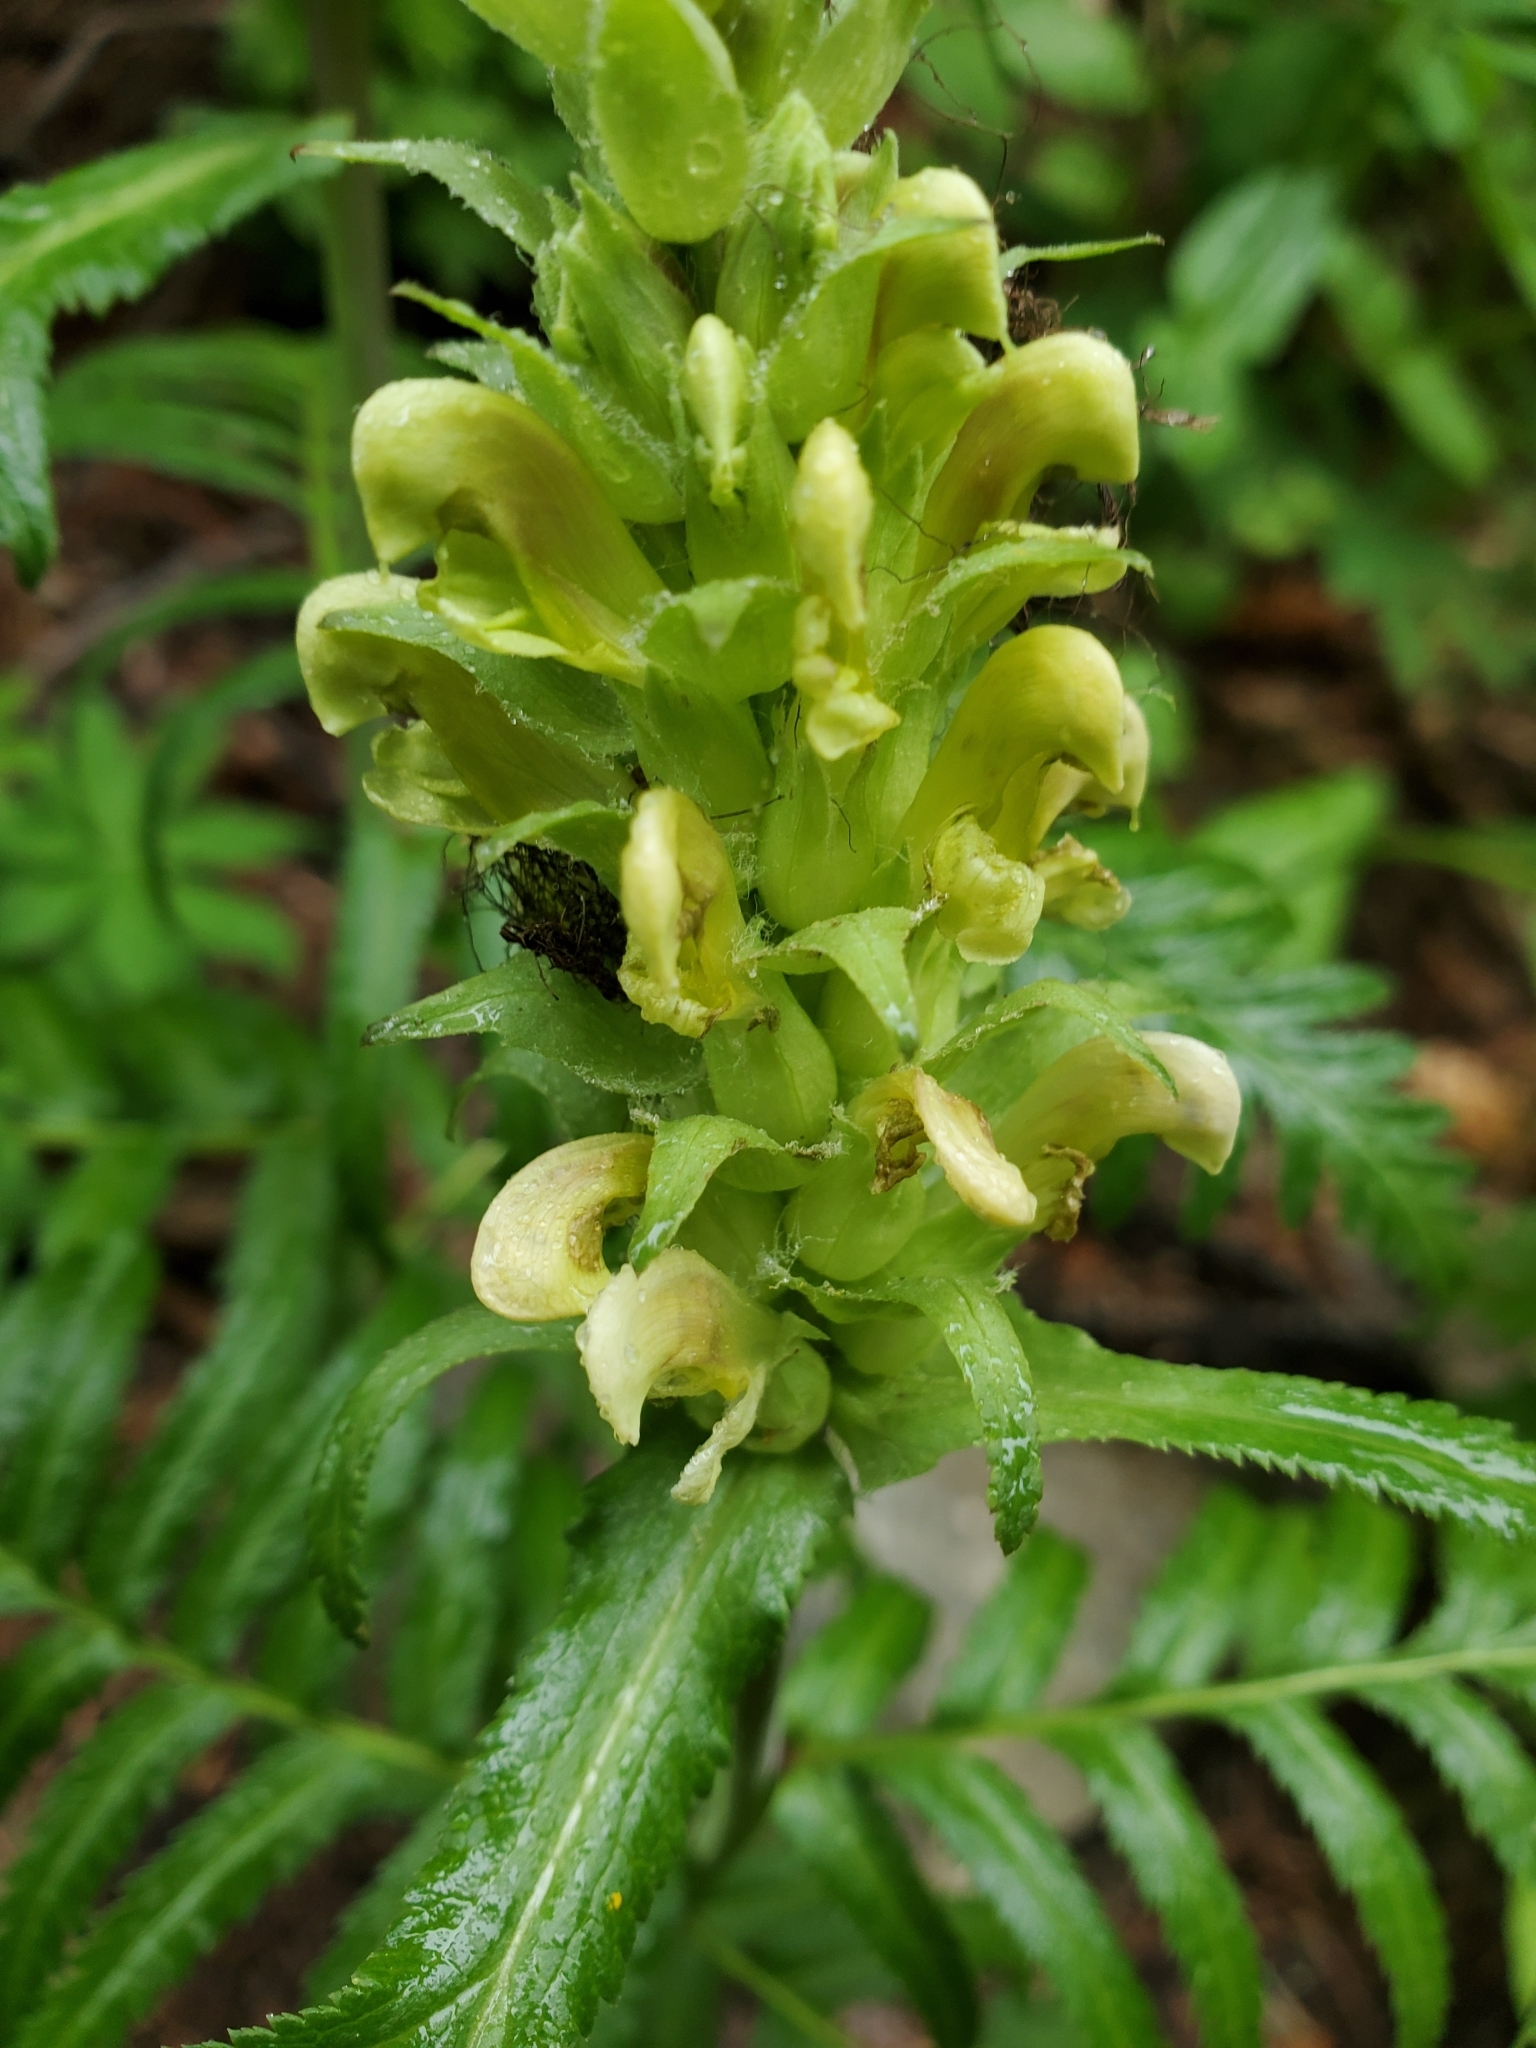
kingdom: Plantae
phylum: Tracheophyta
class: Magnoliopsida
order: Lamiales
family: Orobanchaceae
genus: Pedicularis
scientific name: Pedicularis bracteosa
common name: Bracted lousewort
